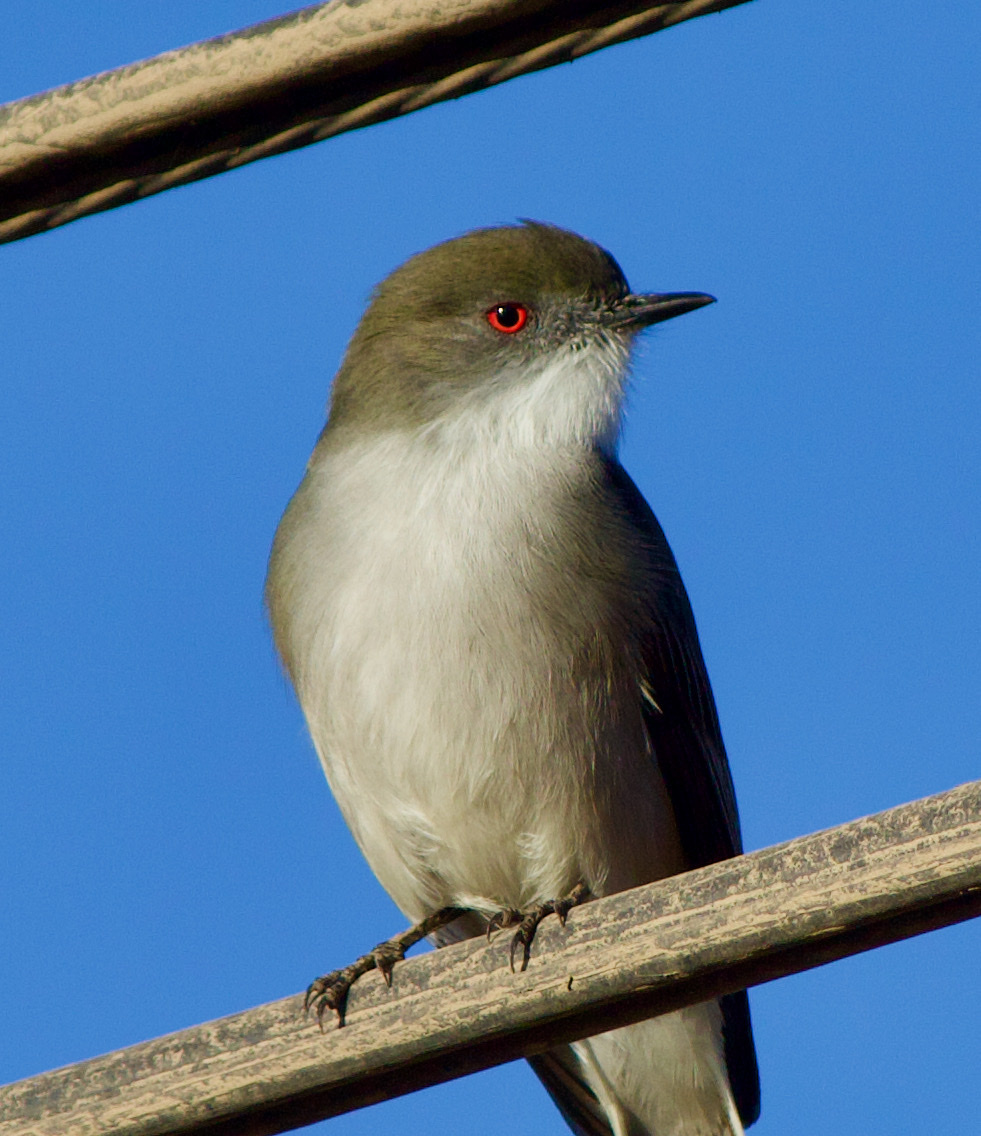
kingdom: Animalia
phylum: Chordata
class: Aves
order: Passeriformes
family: Tyrannidae
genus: Xolmis
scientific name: Xolmis pyrope
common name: Fire-eyed diucon
